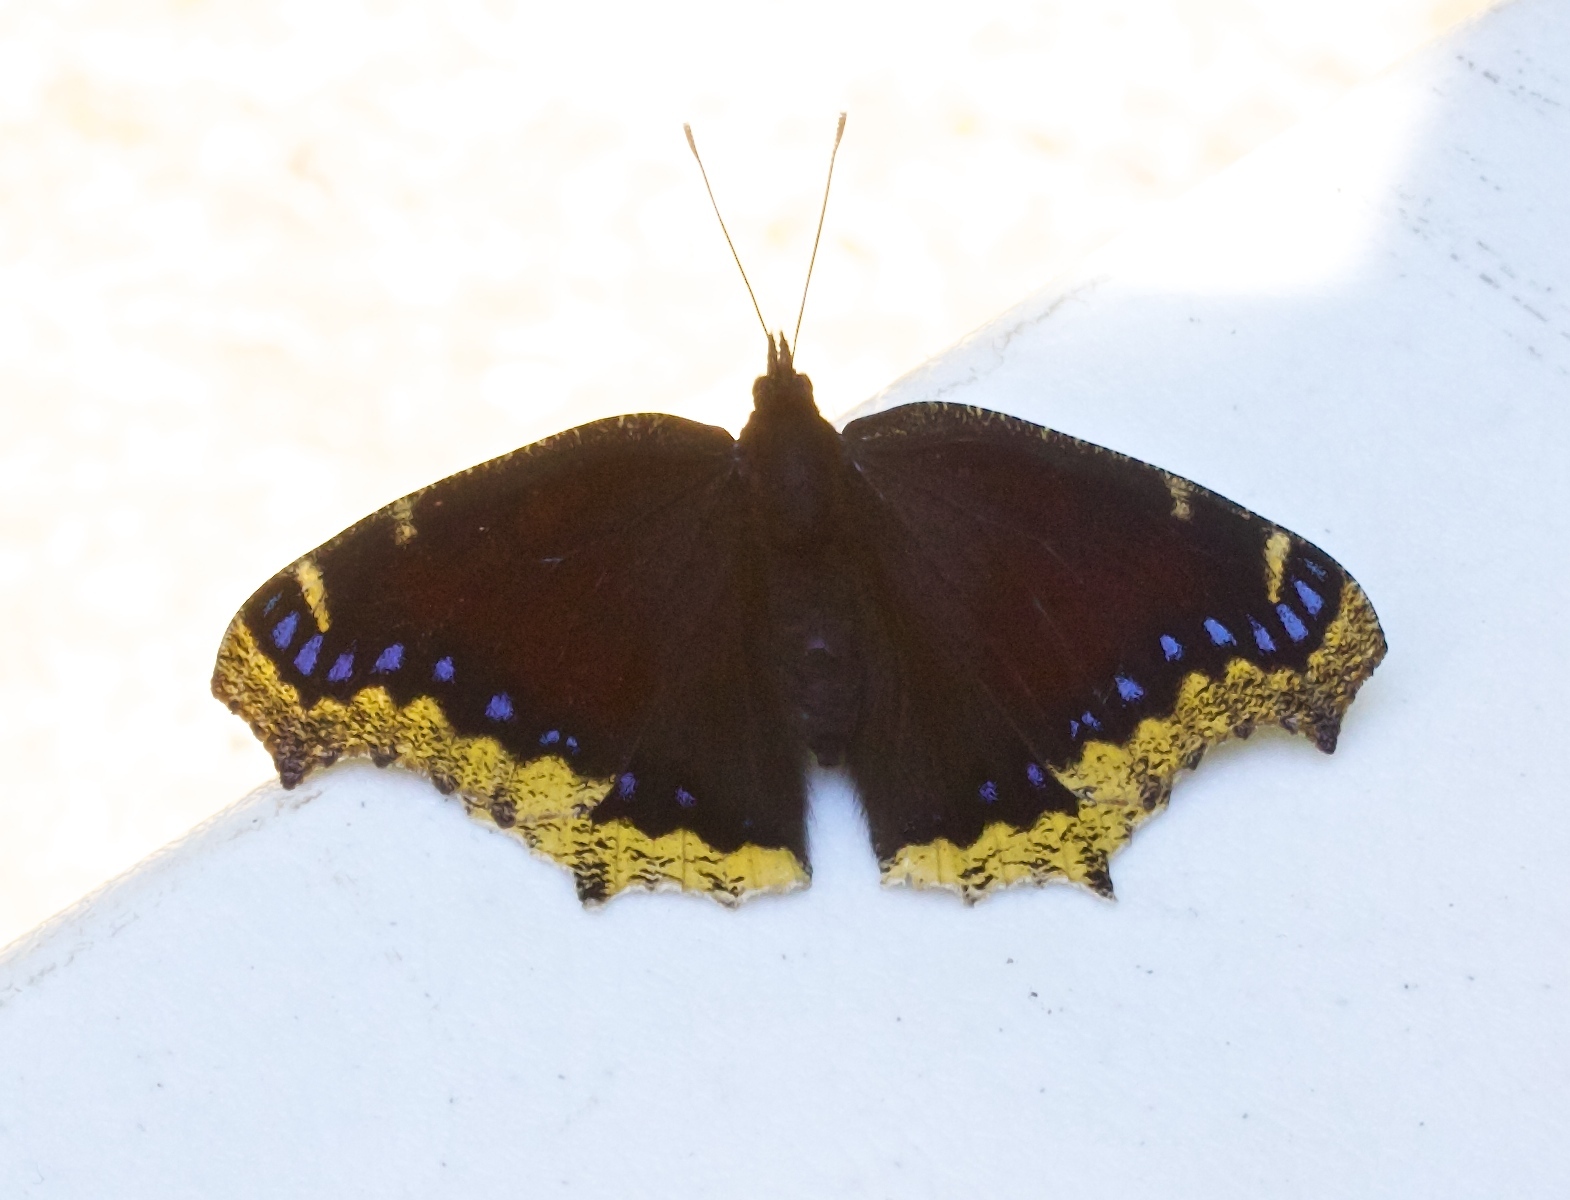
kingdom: Animalia
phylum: Arthropoda
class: Insecta
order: Lepidoptera
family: Nymphalidae
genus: Nymphalis
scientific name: Nymphalis antiopa
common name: Camberwell beauty
